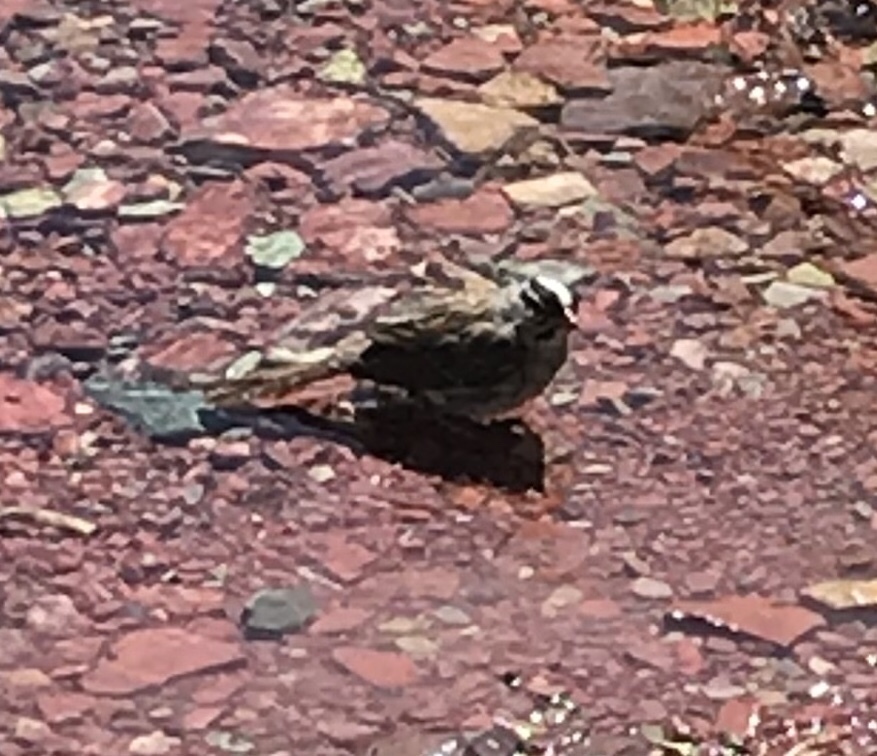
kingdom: Animalia
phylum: Chordata
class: Aves
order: Passeriformes
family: Passerellidae
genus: Zonotrichia
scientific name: Zonotrichia leucophrys
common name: White-crowned sparrow
